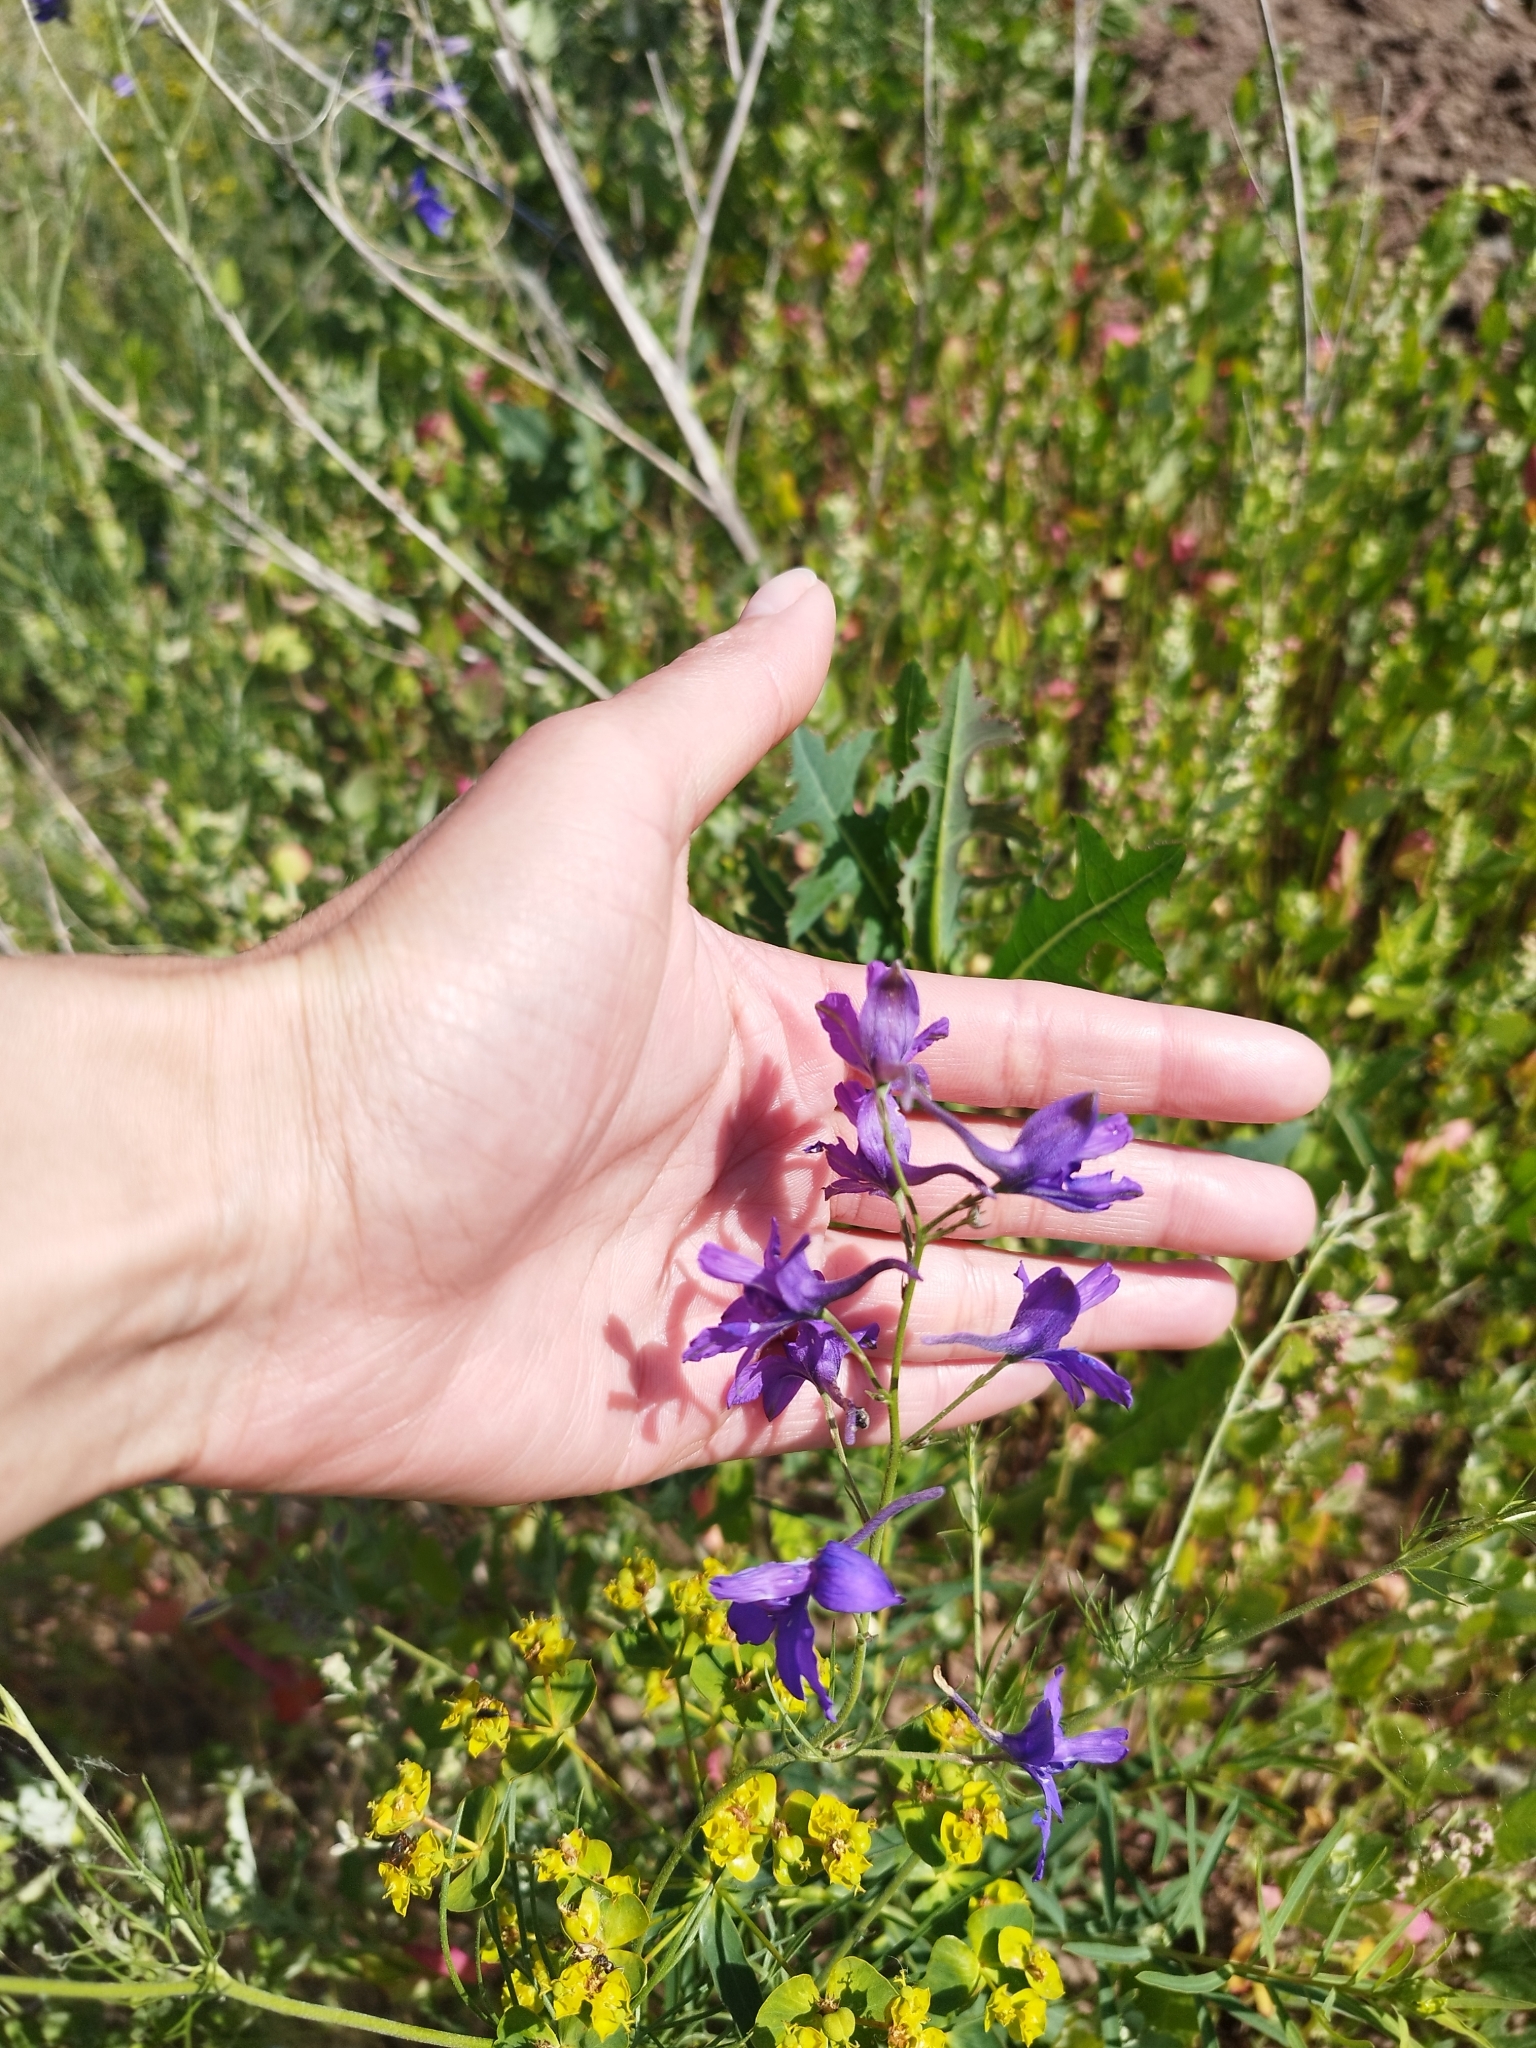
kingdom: Plantae
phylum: Tracheophyta
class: Magnoliopsida
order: Ranunculales
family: Ranunculaceae
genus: Delphinium
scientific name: Delphinium consolida
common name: Branching larkspur
